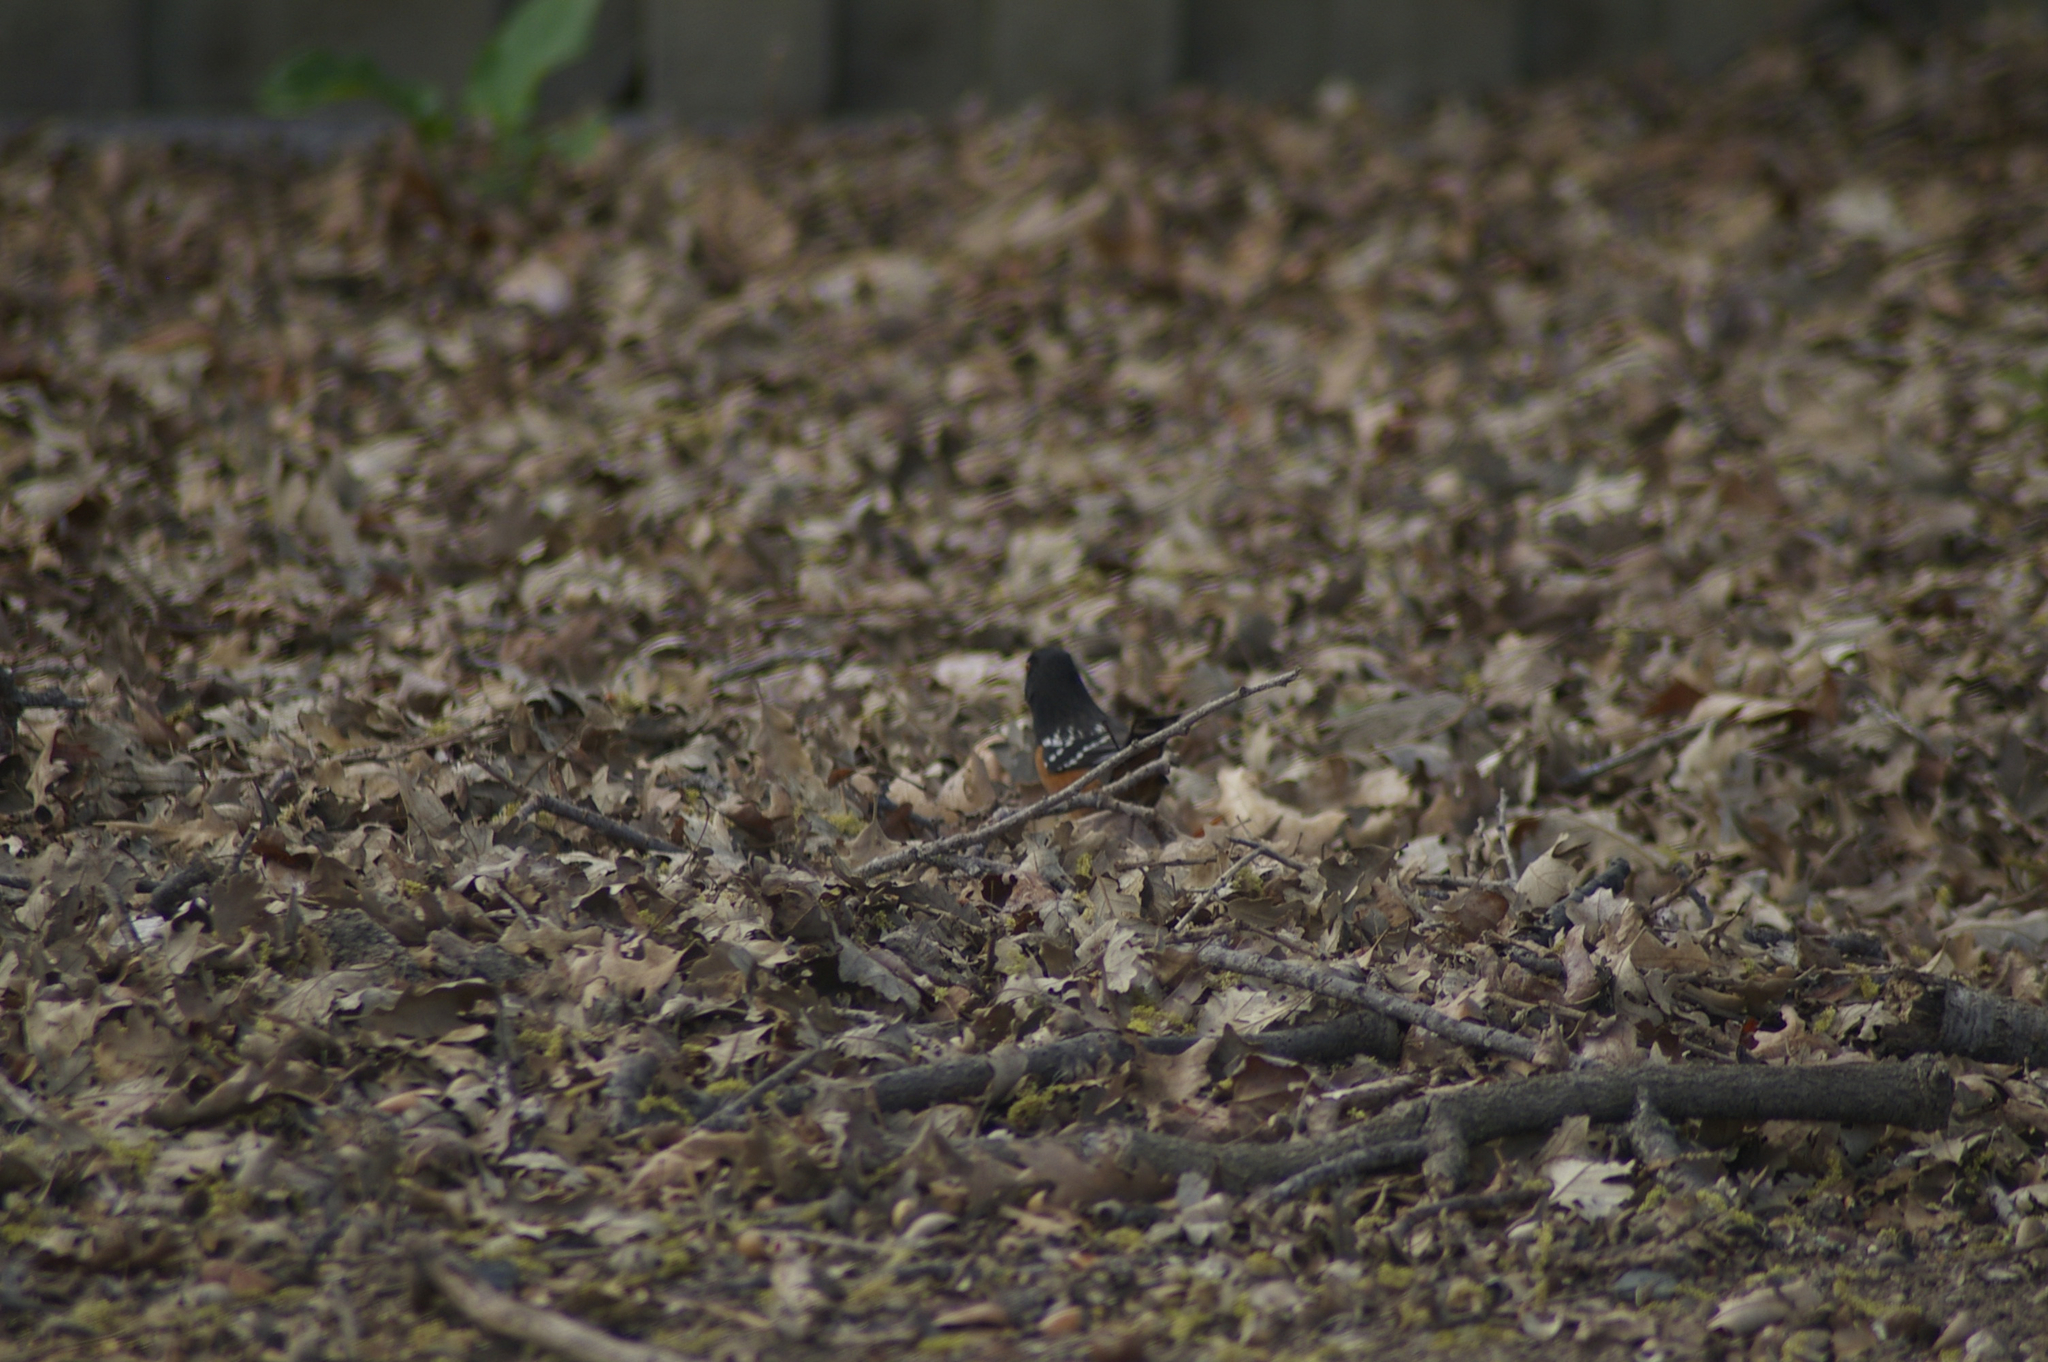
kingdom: Animalia
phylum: Chordata
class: Aves
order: Passeriformes
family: Passerellidae
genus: Pipilo
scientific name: Pipilo maculatus
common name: Spotted towhee
